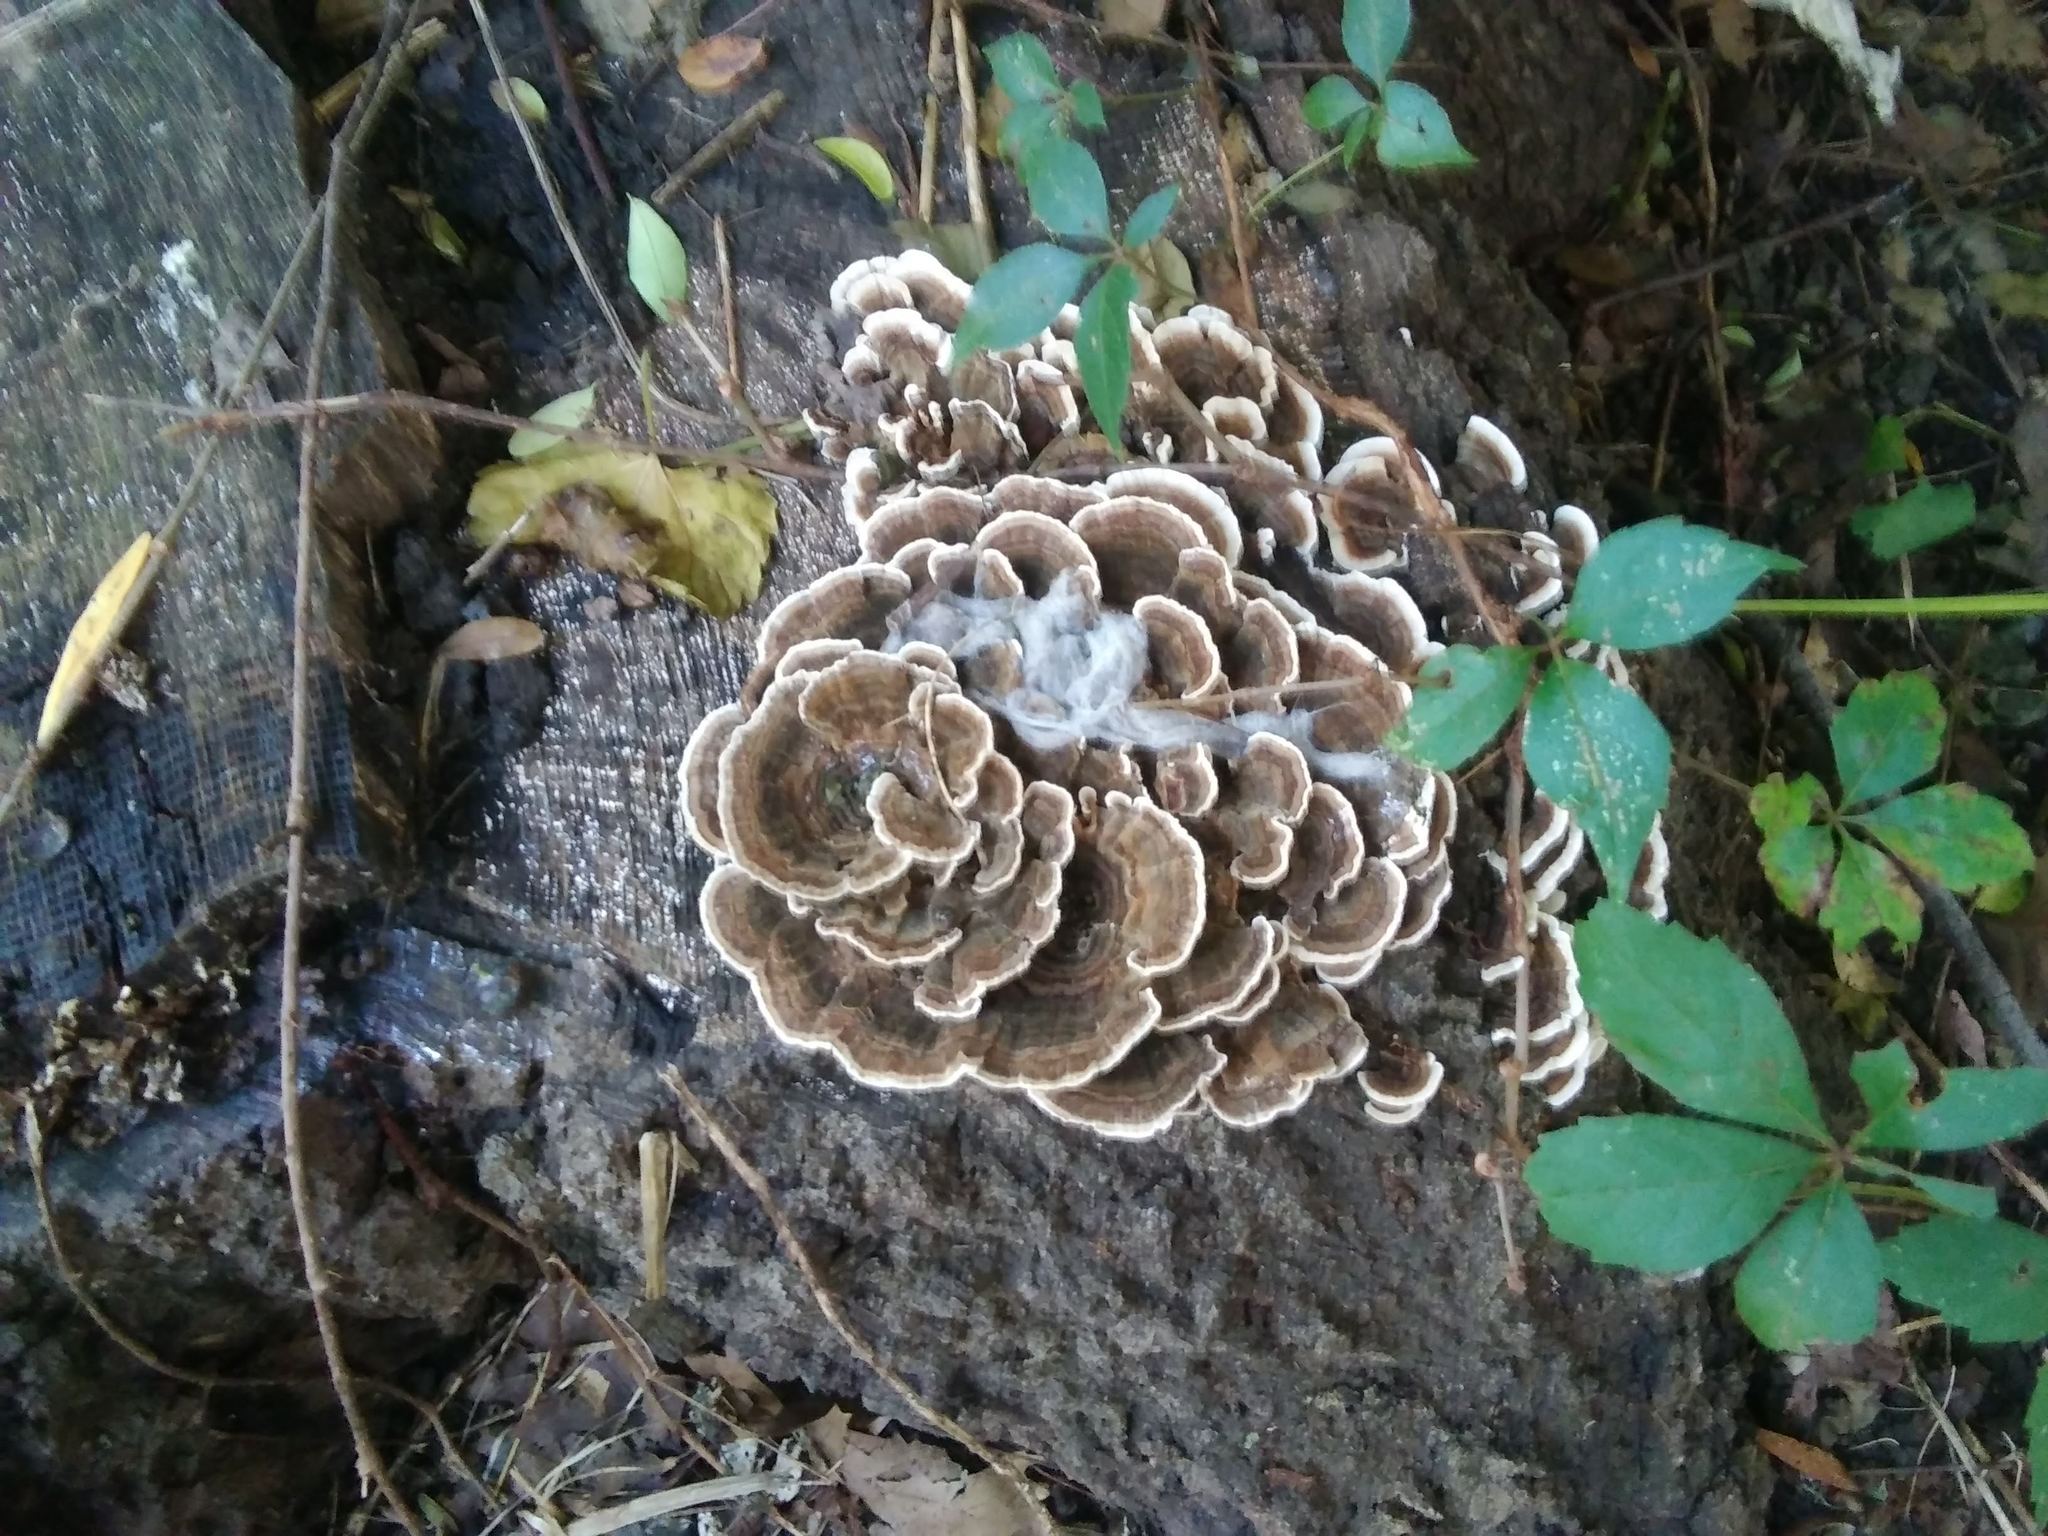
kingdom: Fungi
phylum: Basidiomycota
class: Agaricomycetes
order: Polyporales
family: Polyporaceae
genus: Trametes
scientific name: Trametes versicolor
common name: Turkeytail
